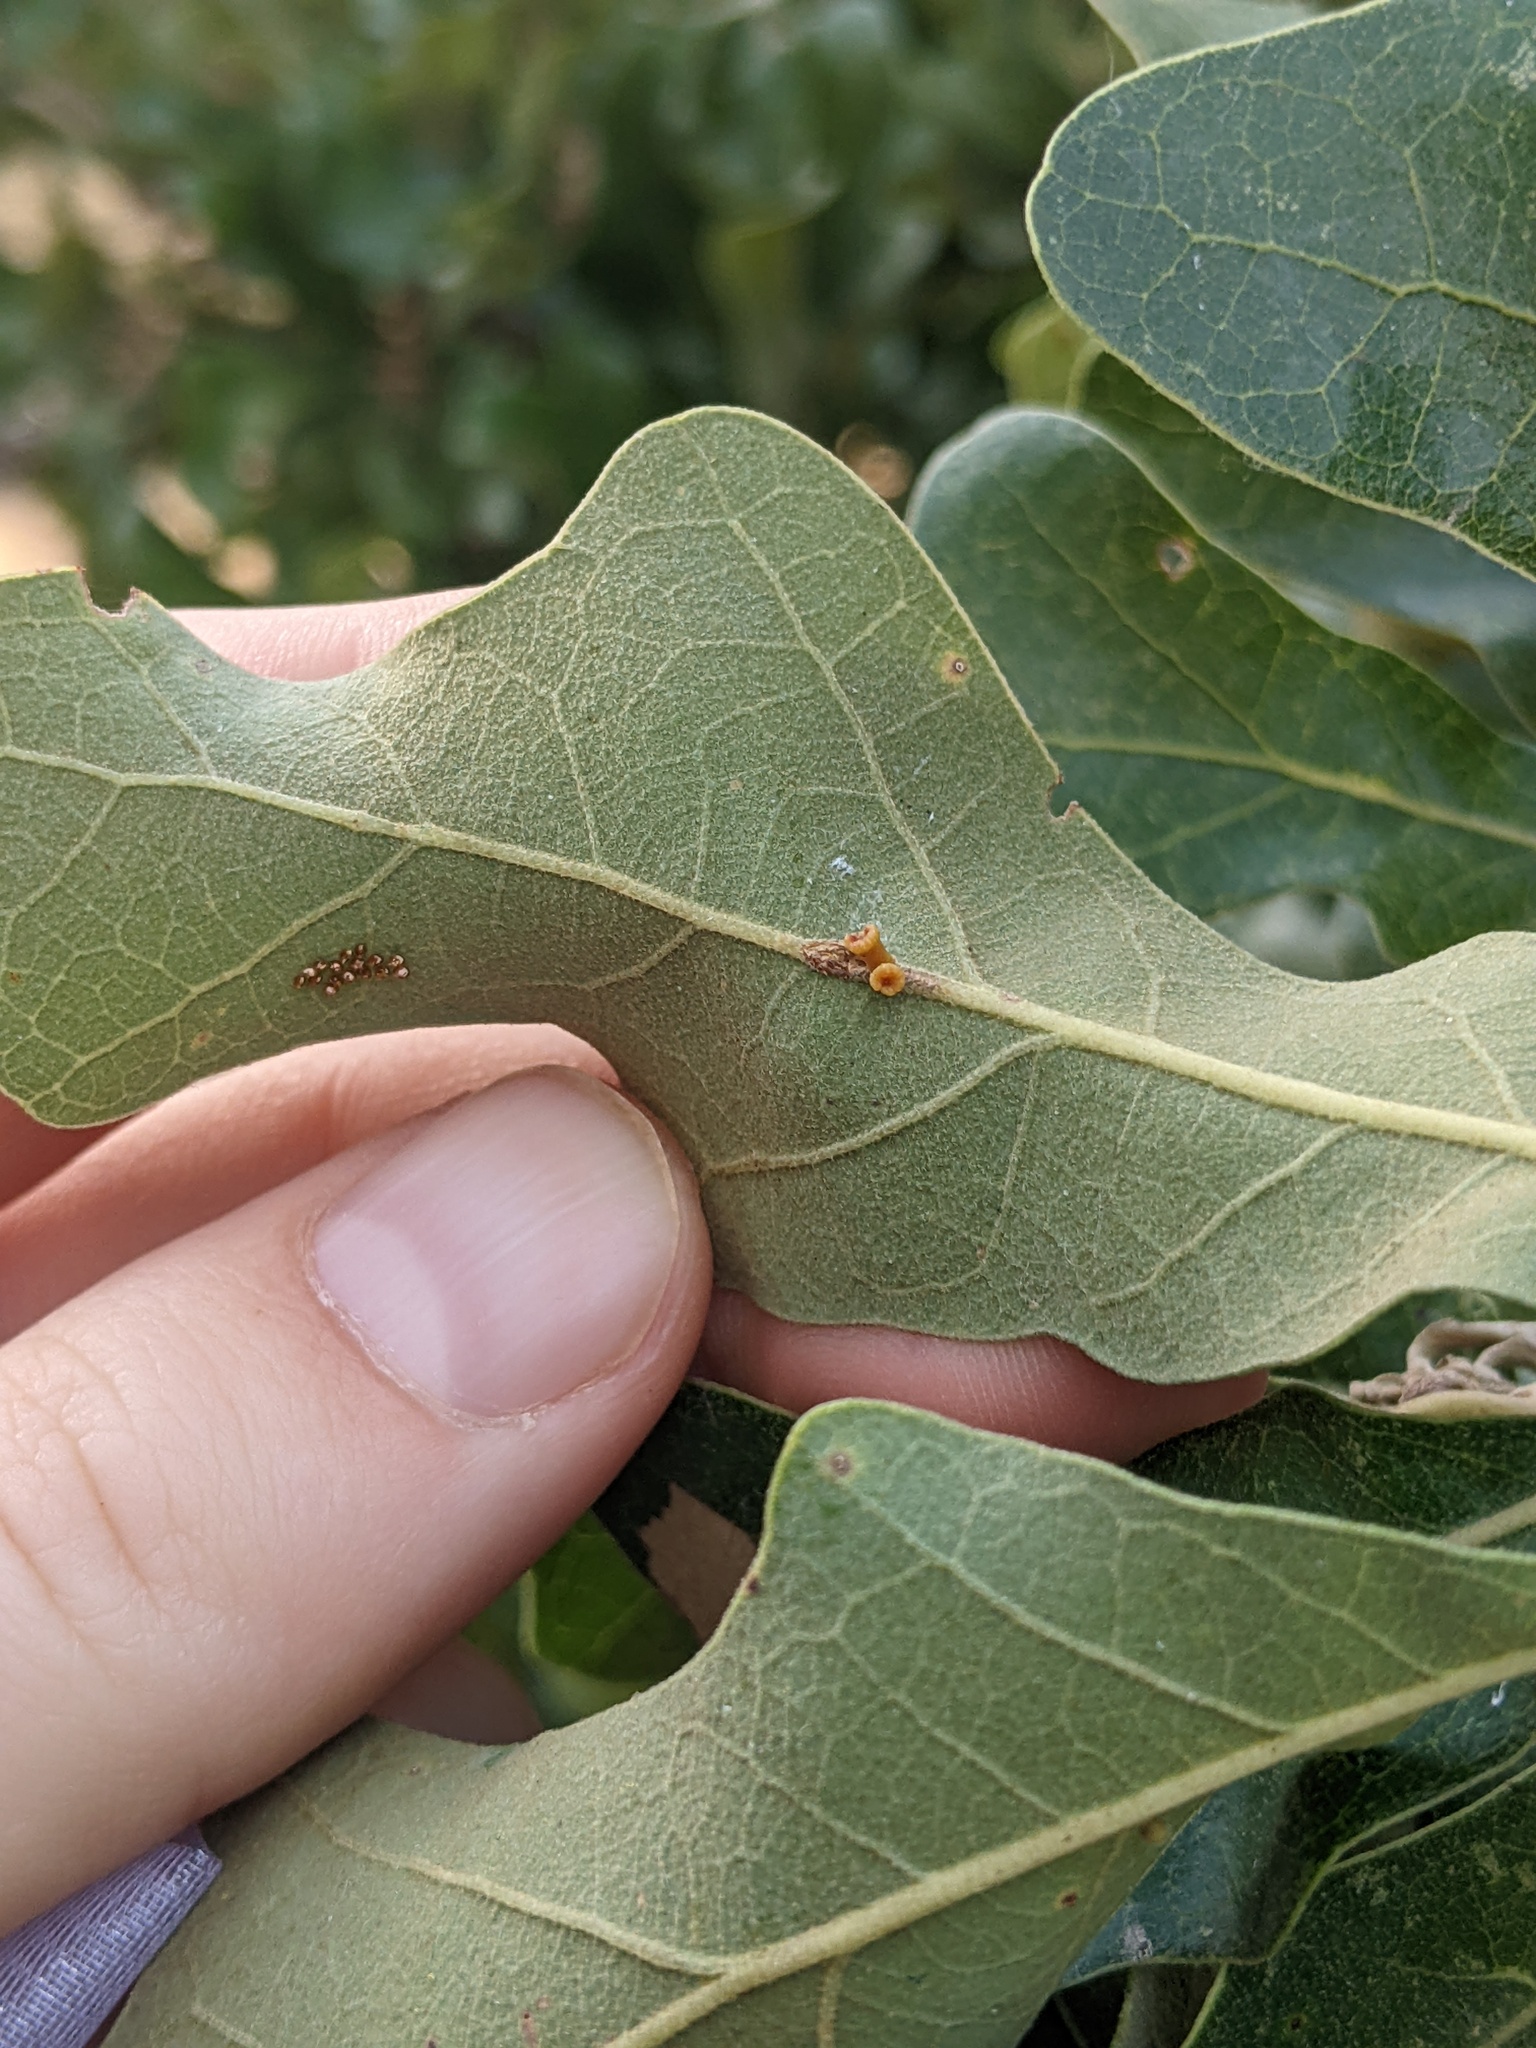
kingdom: Animalia
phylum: Arthropoda
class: Insecta
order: Hymenoptera
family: Cynipidae
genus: Andricus
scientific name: Andricus lustrans
